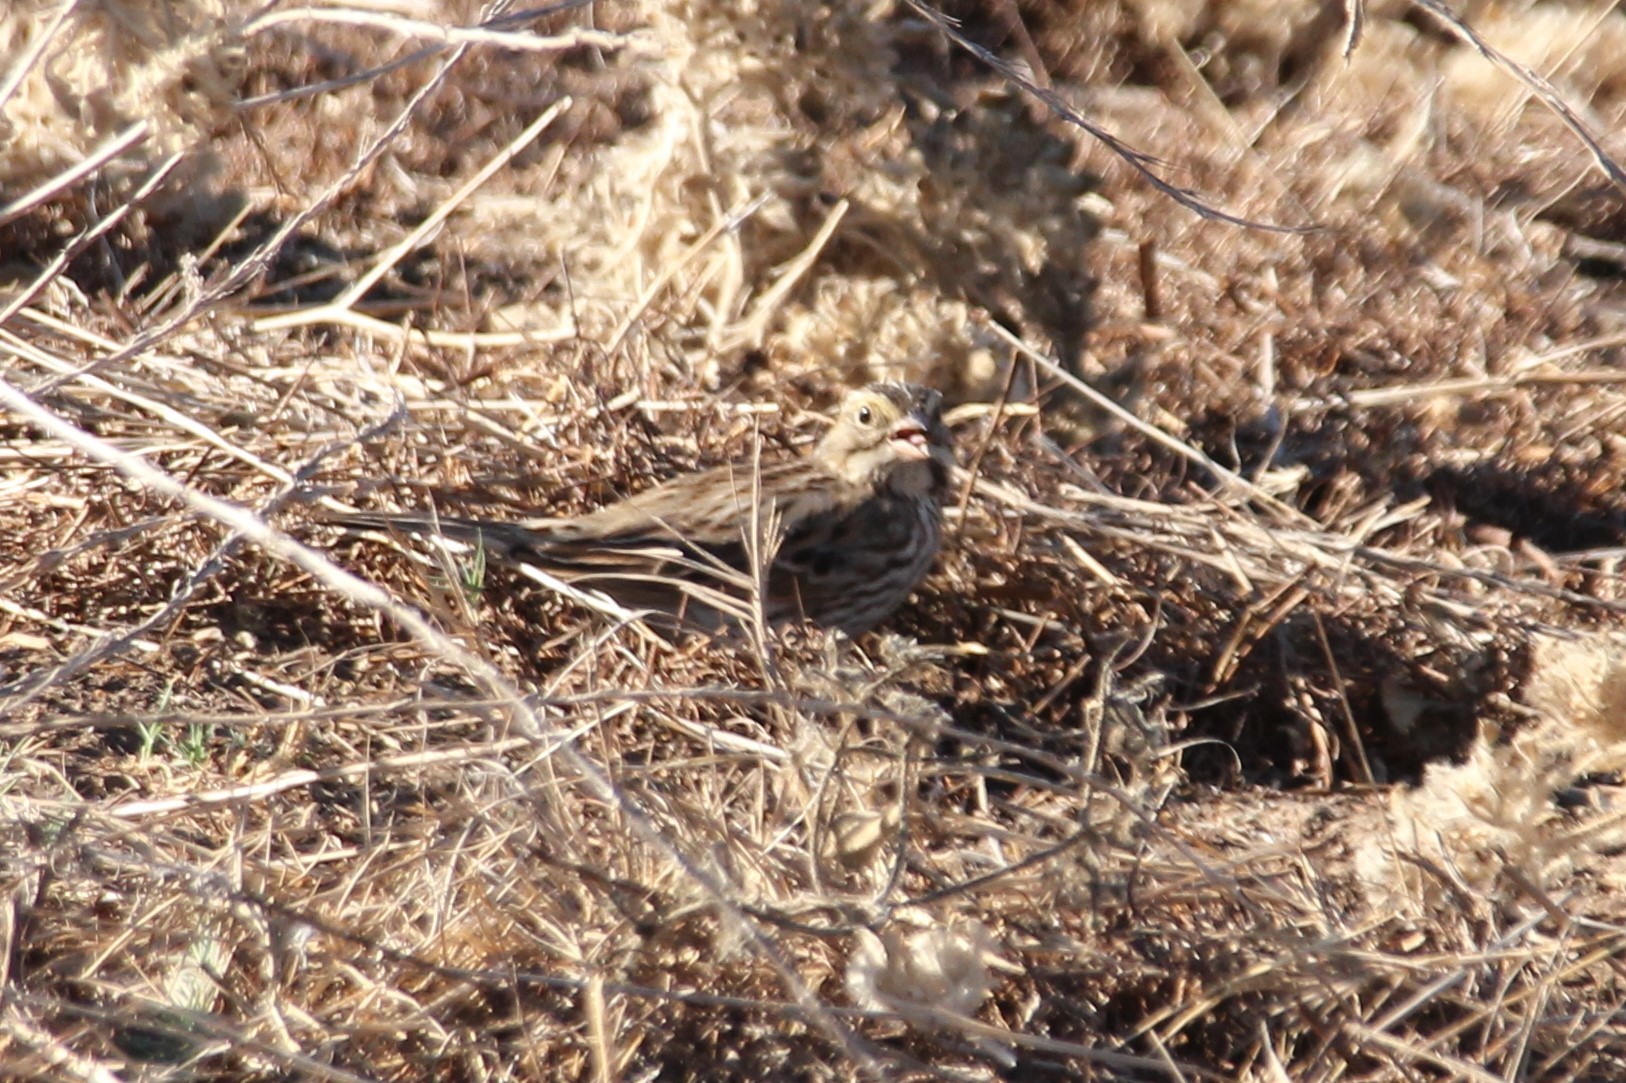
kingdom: Animalia
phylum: Chordata
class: Aves
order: Passeriformes
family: Passerellidae
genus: Passerculus
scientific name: Passerculus sandwichensis
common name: Savannah sparrow
